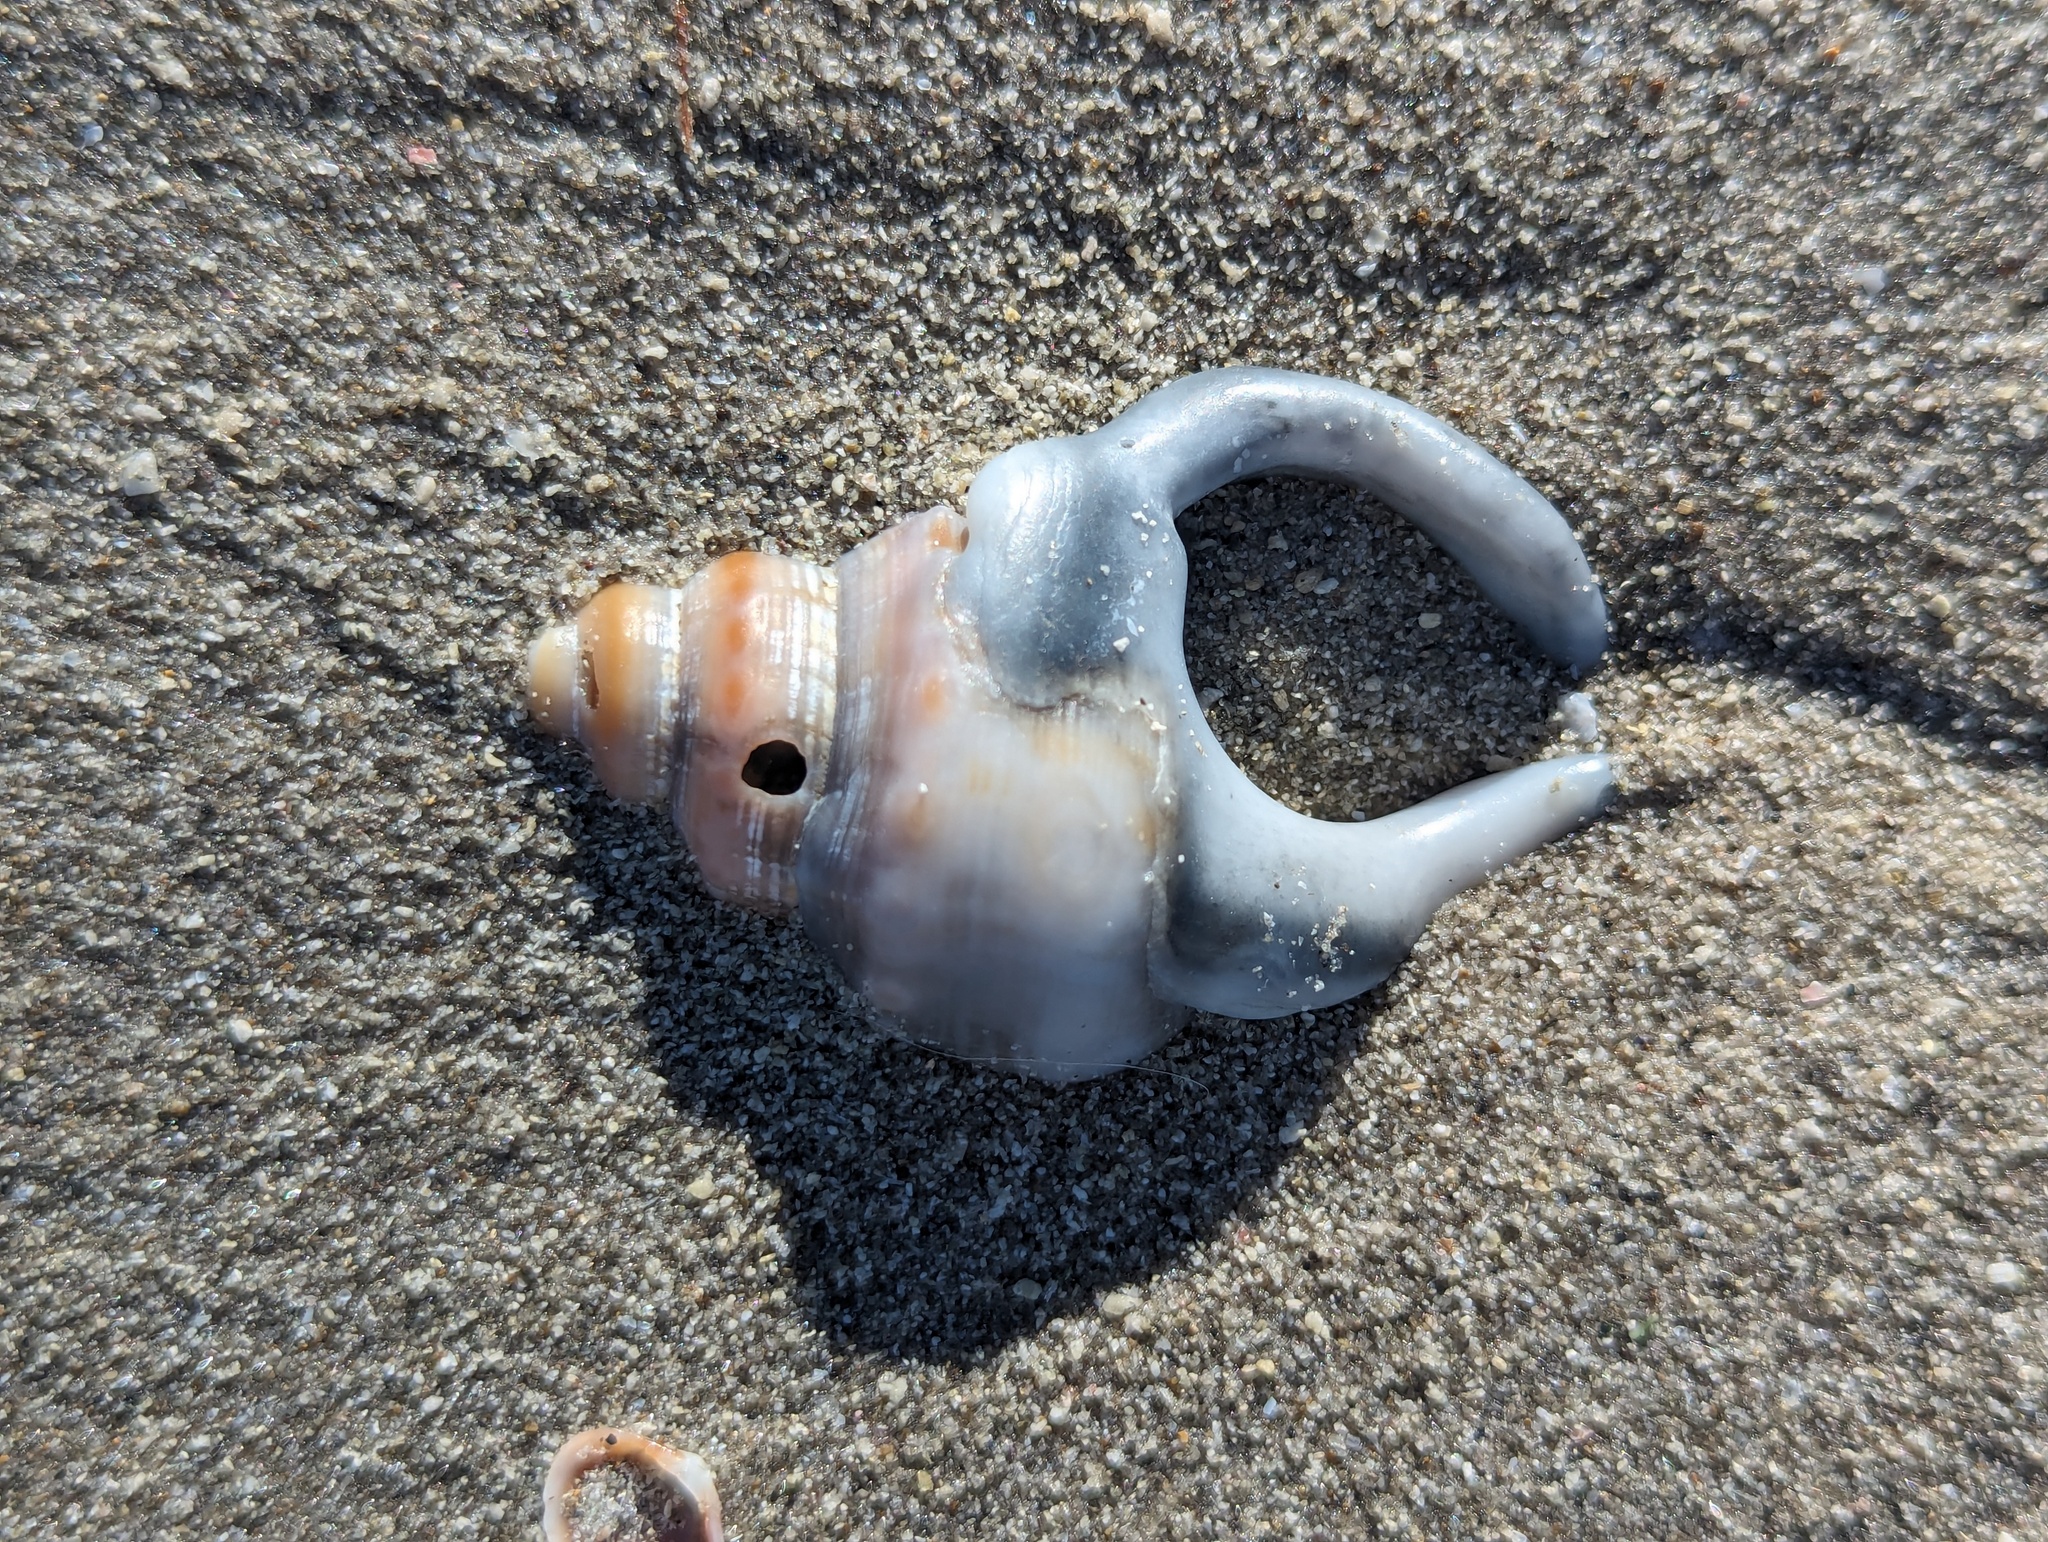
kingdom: Animalia
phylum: Mollusca
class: Gastropoda
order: Littorinimorpha
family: Struthiolariidae
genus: Struthiolaria
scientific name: Struthiolaria papulosa
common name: Large ostrich foot
